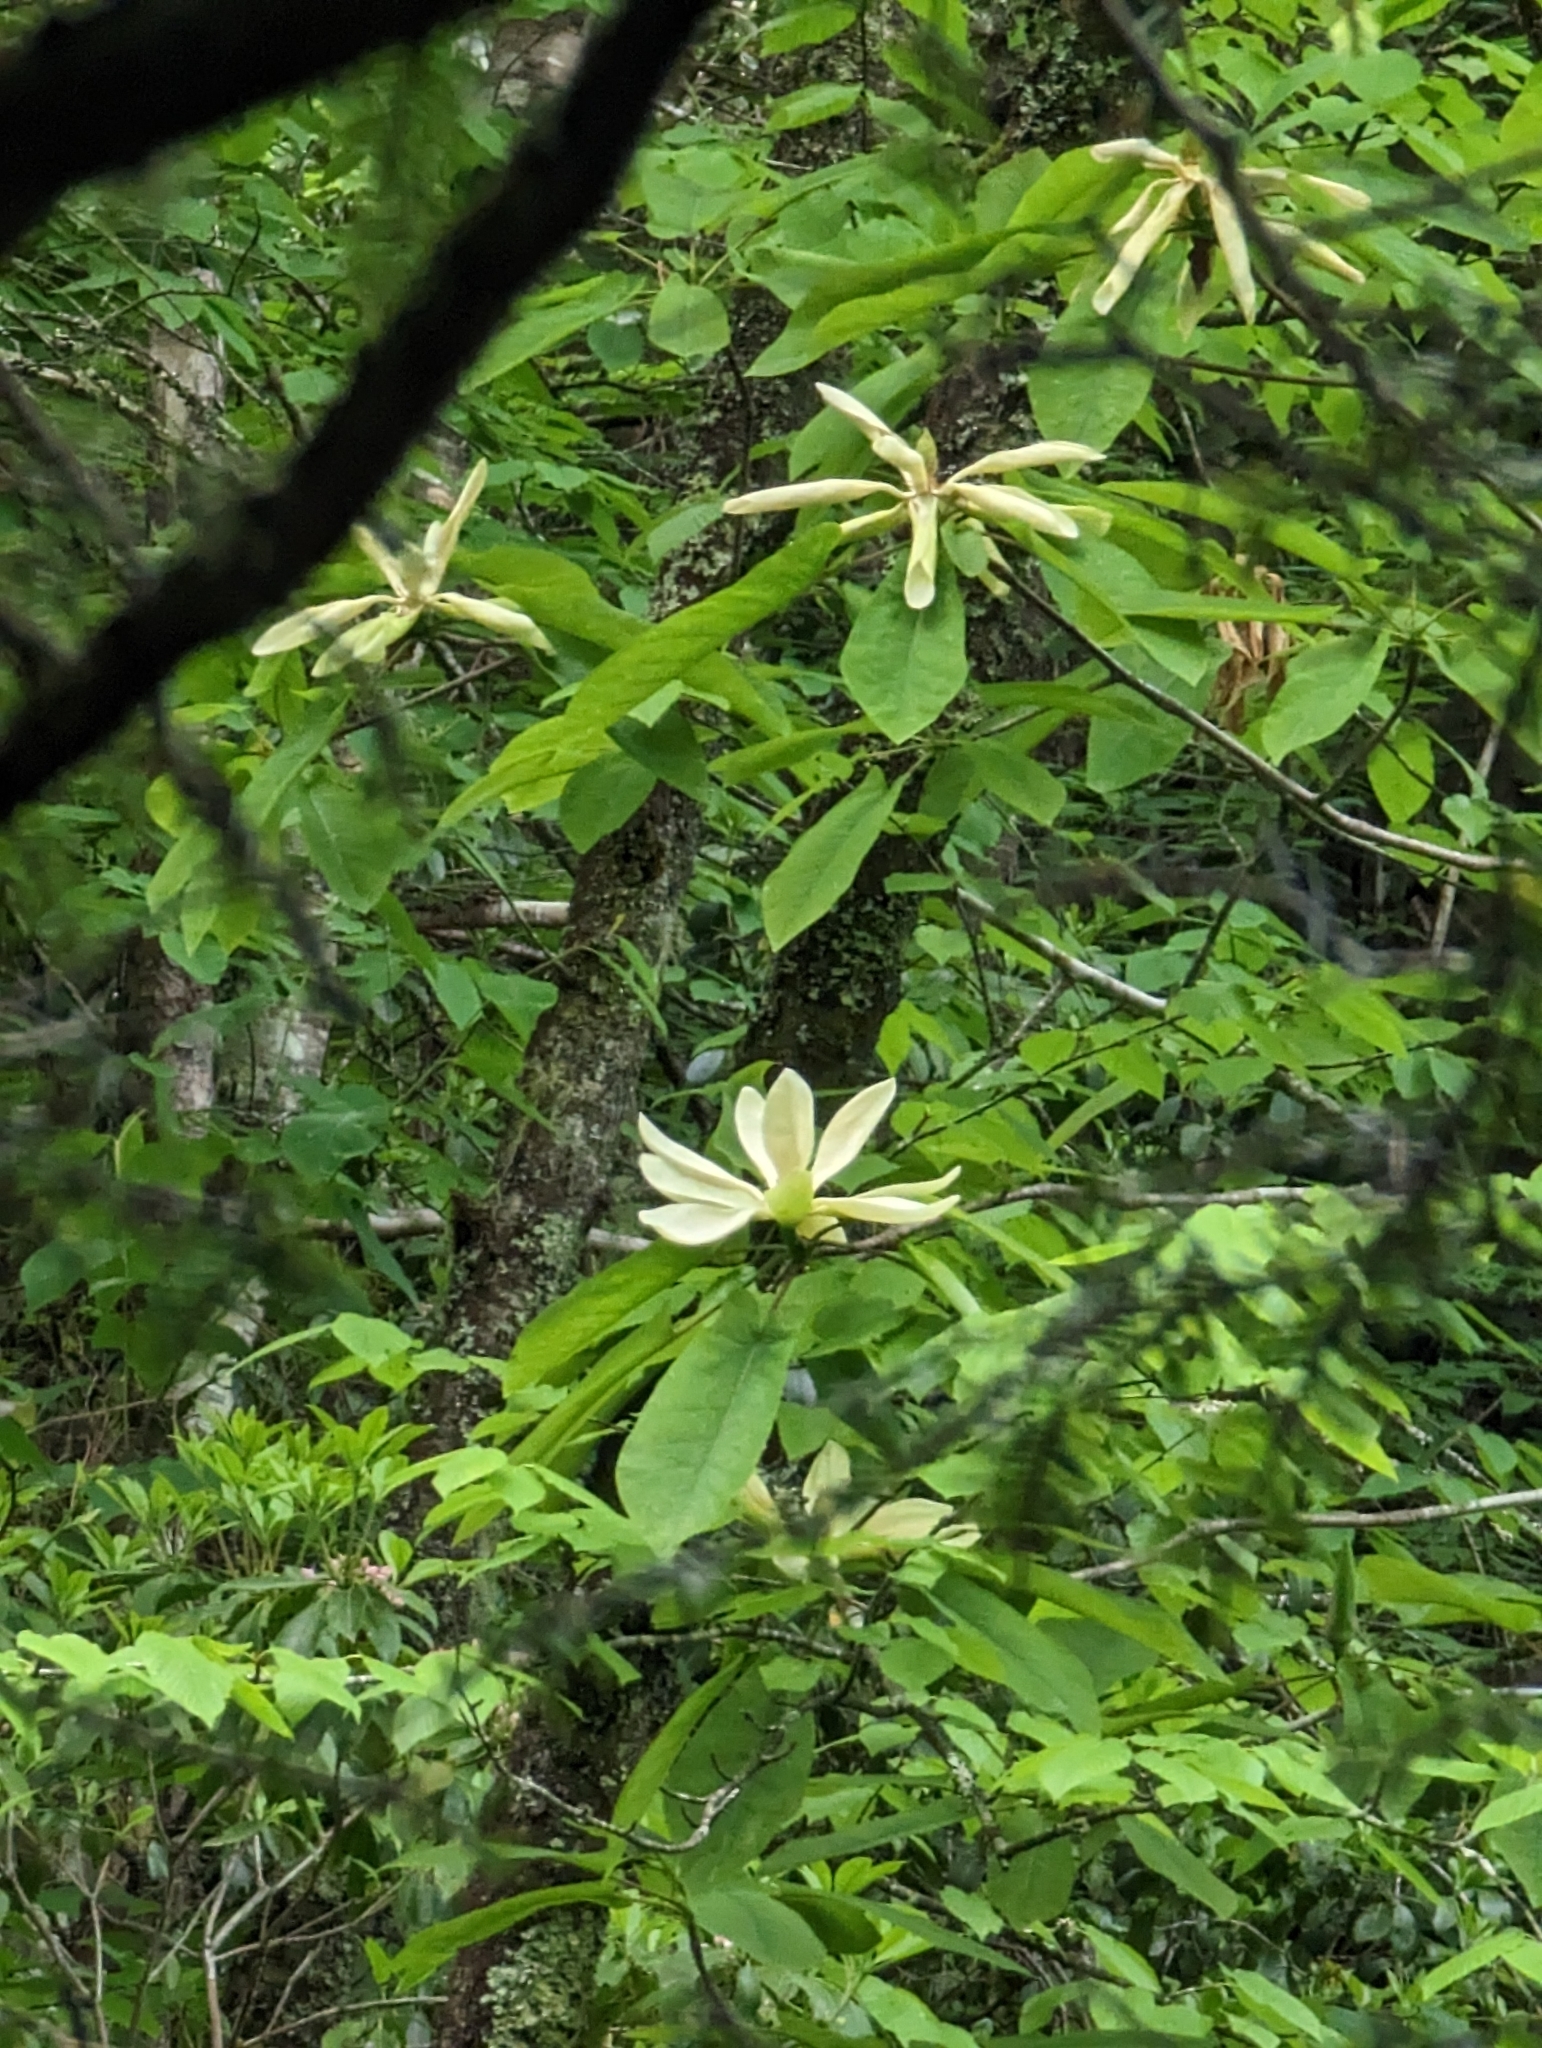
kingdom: Plantae
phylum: Tracheophyta
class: Magnoliopsida
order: Magnoliales
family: Magnoliaceae
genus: Magnolia
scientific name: Magnolia fraseri
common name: Fraser's magnolia
